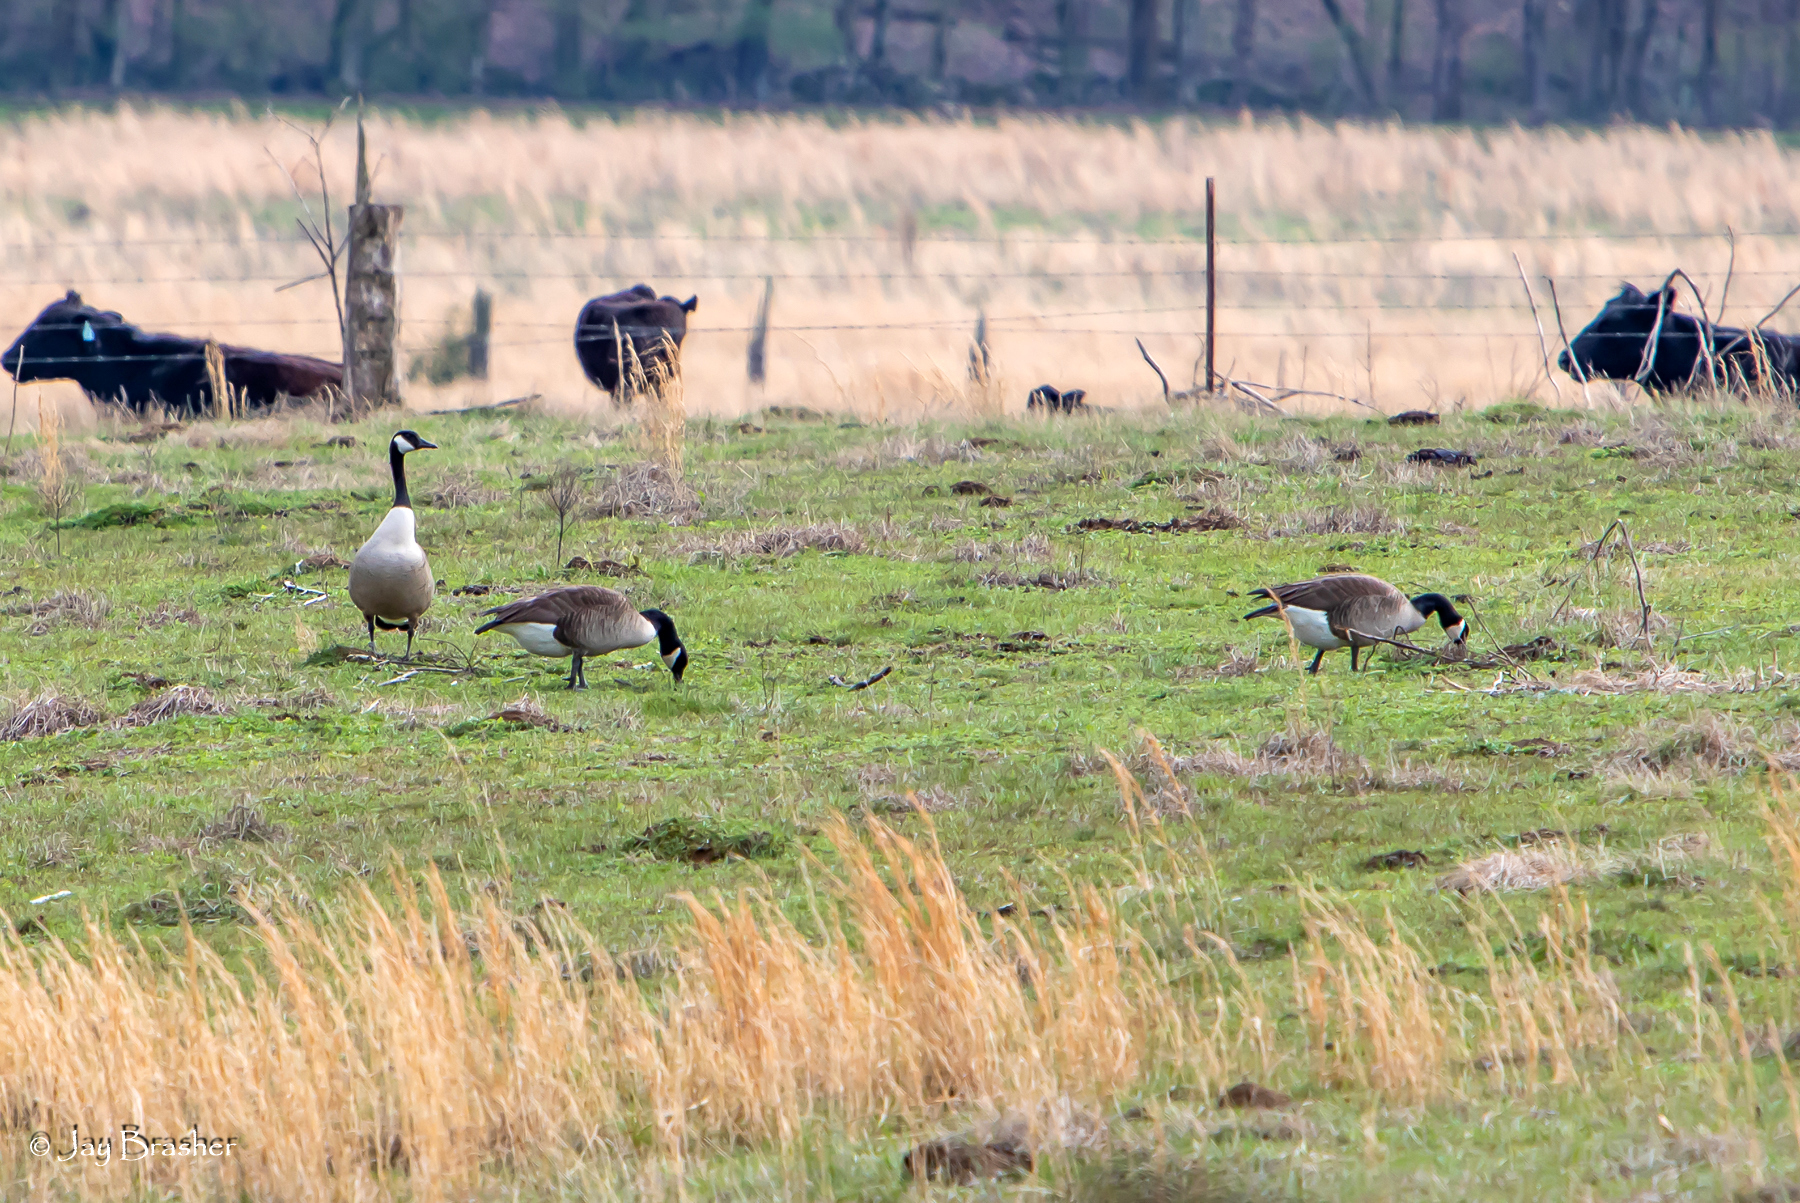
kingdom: Animalia
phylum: Chordata
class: Aves
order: Anseriformes
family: Anatidae
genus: Branta
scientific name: Branta canadensis
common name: Canada goose
